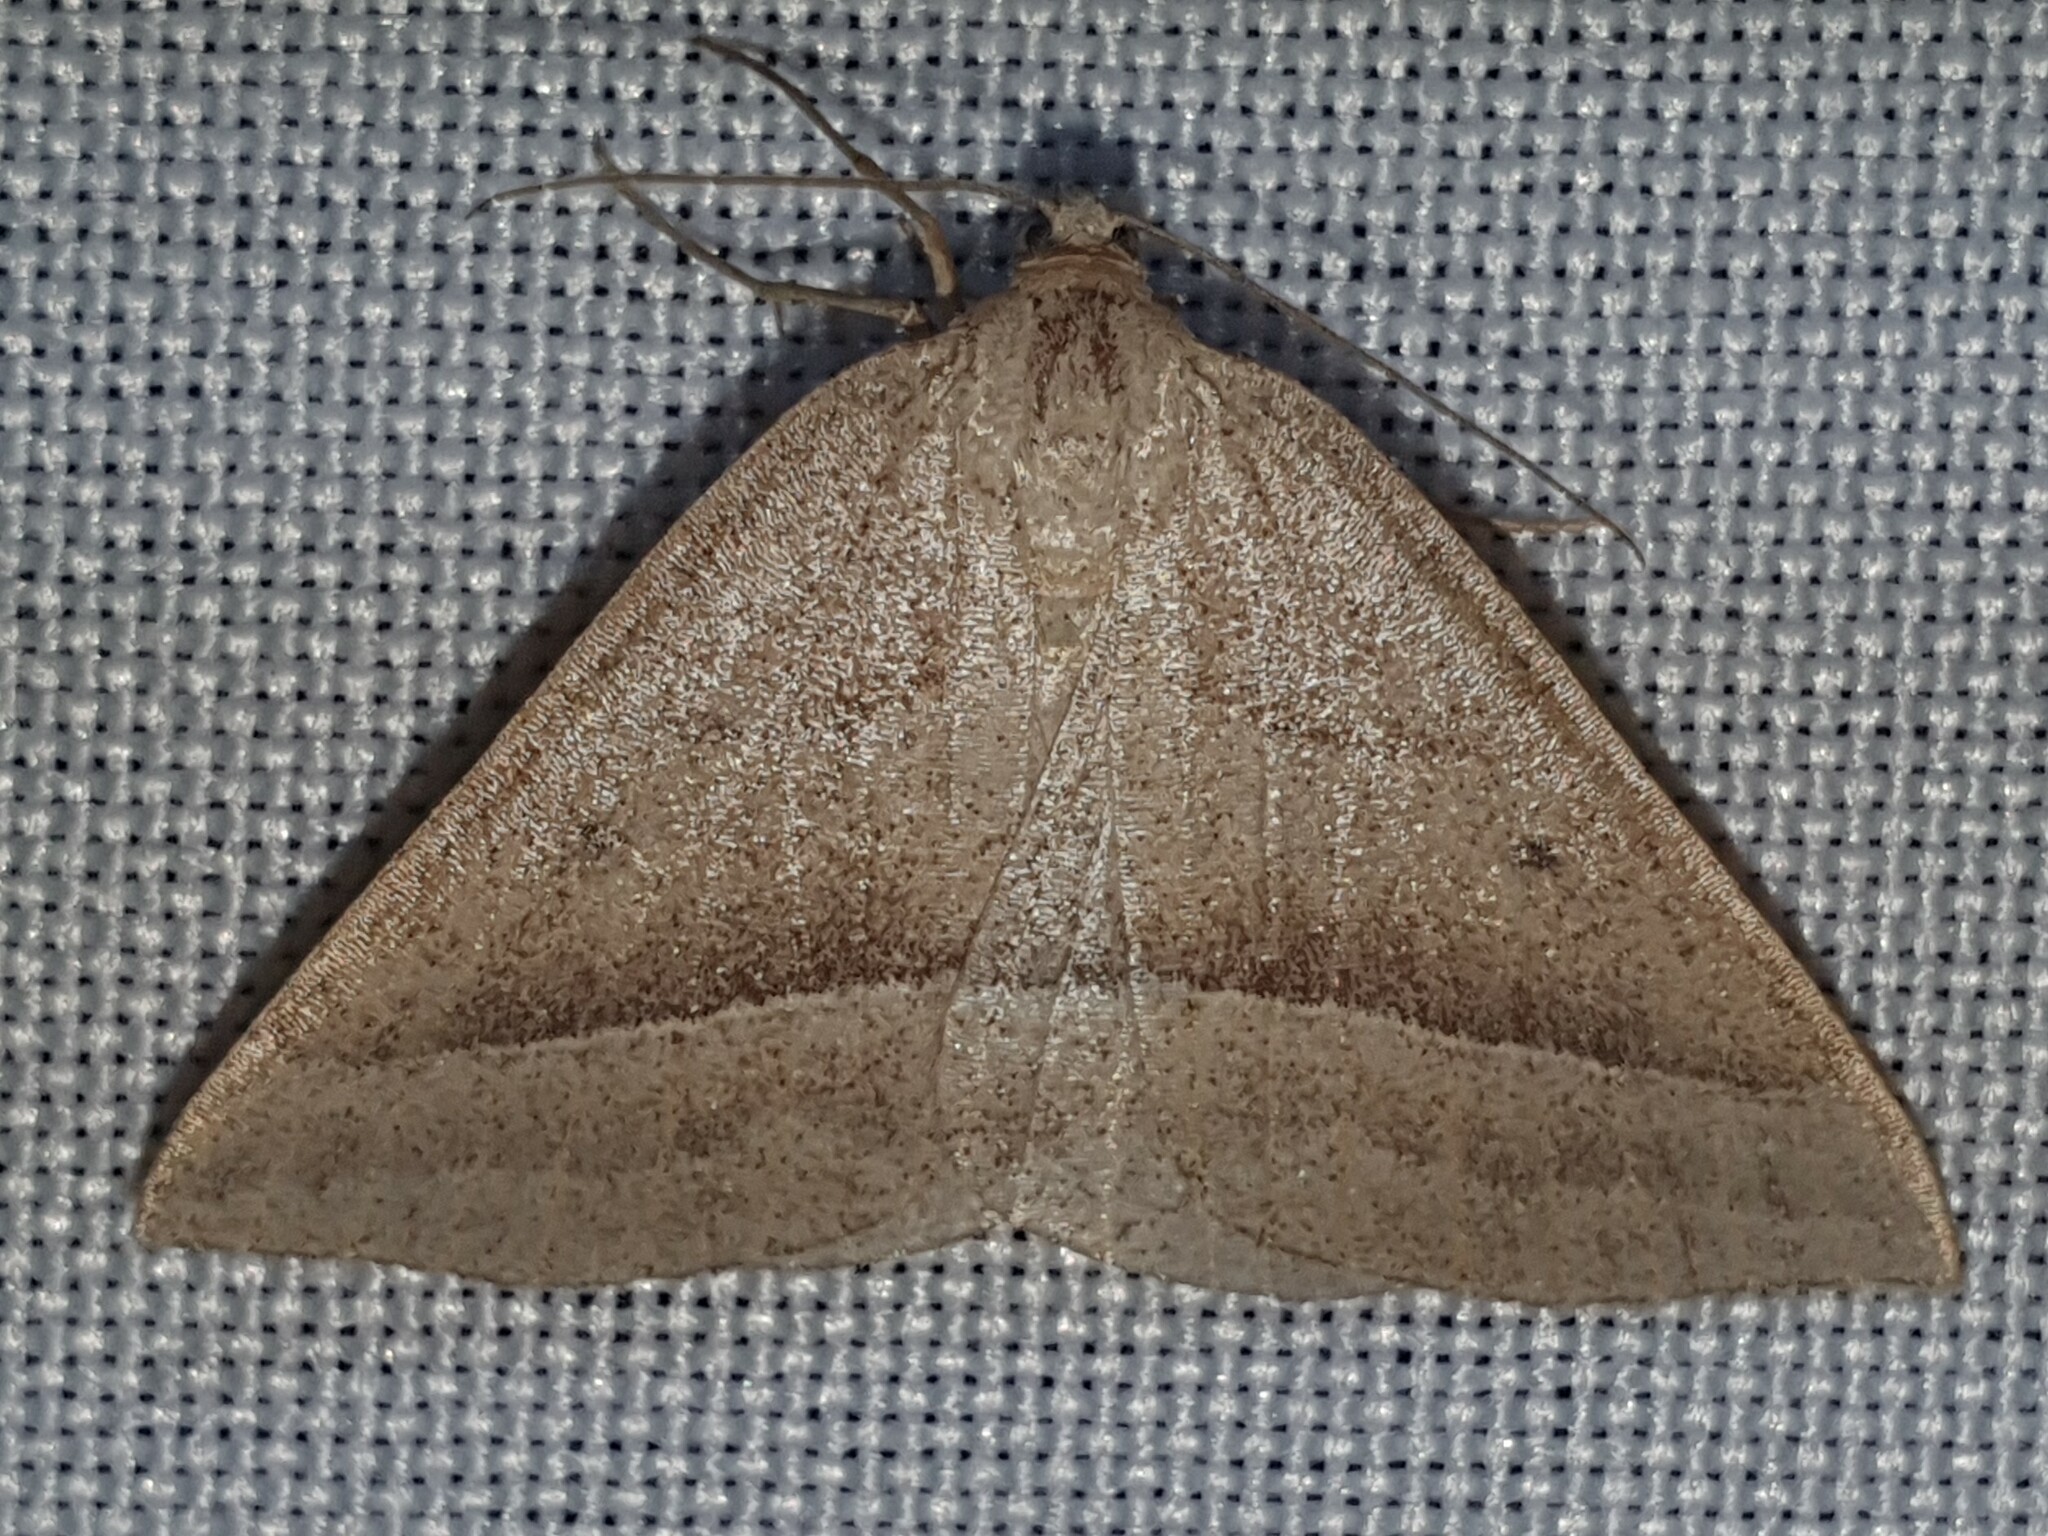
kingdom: Animalia
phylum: Arthropoda
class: Insecta
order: Lepidoptera
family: Pterophoridae
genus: Pterophorus
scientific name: Pterophorus Petrophora chlorosata
